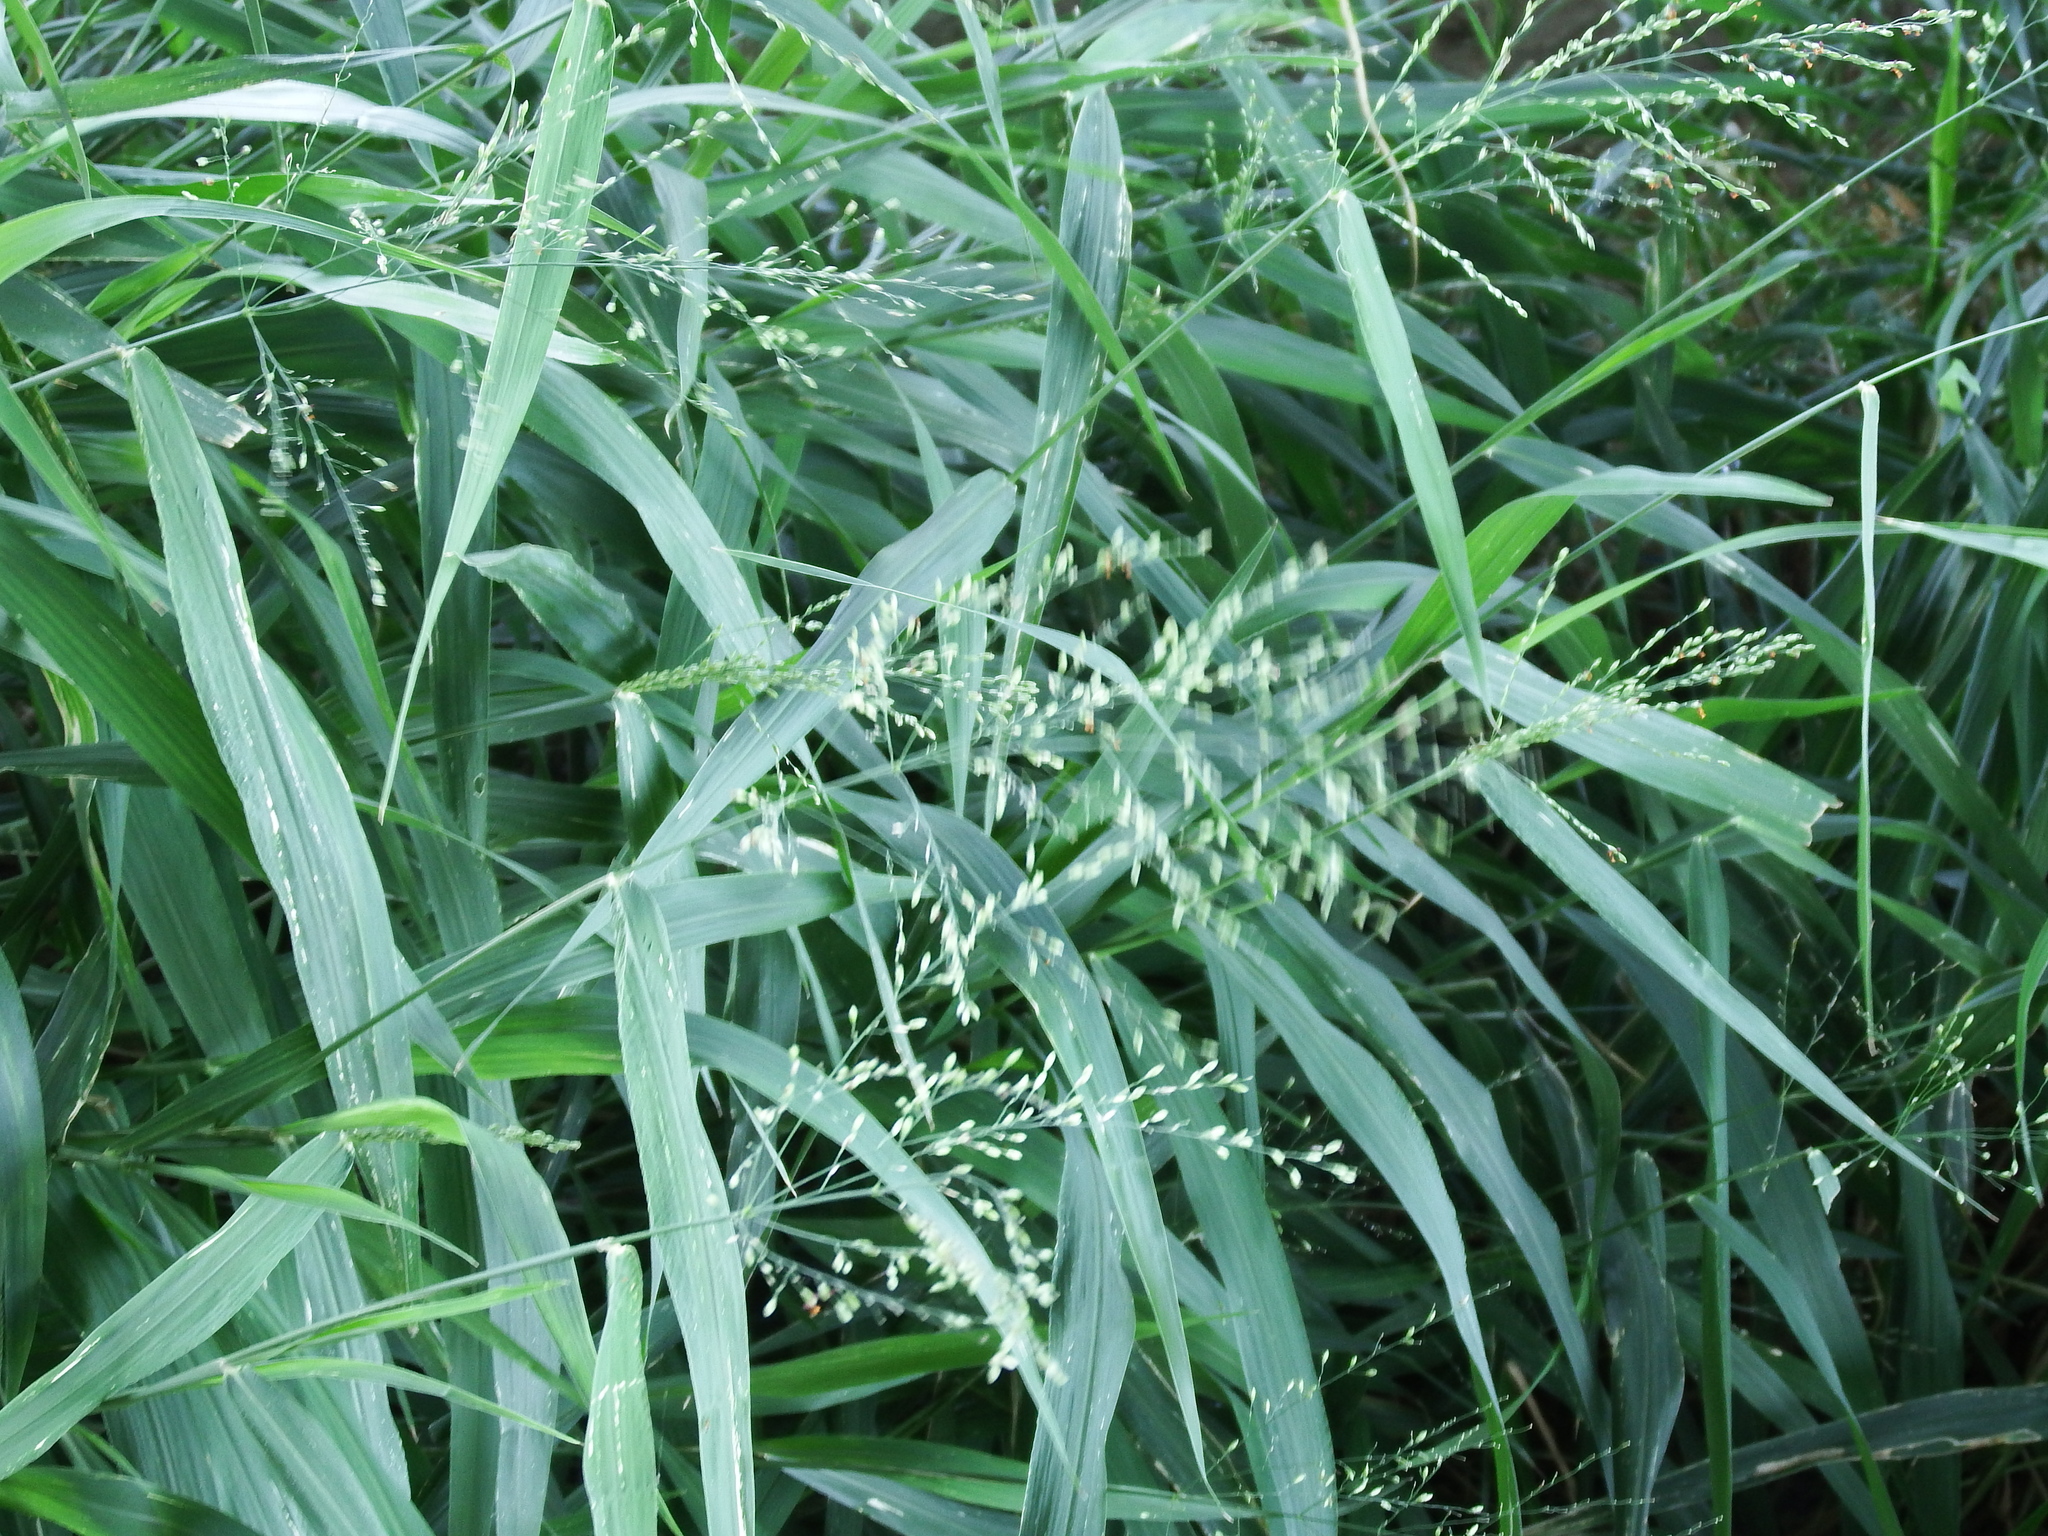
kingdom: Plantae
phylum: Tracheophyta
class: Liliopsida
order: Poales
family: Poaceae
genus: Megathyrsus
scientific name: Megathyrsus maximus
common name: Guineagrass
